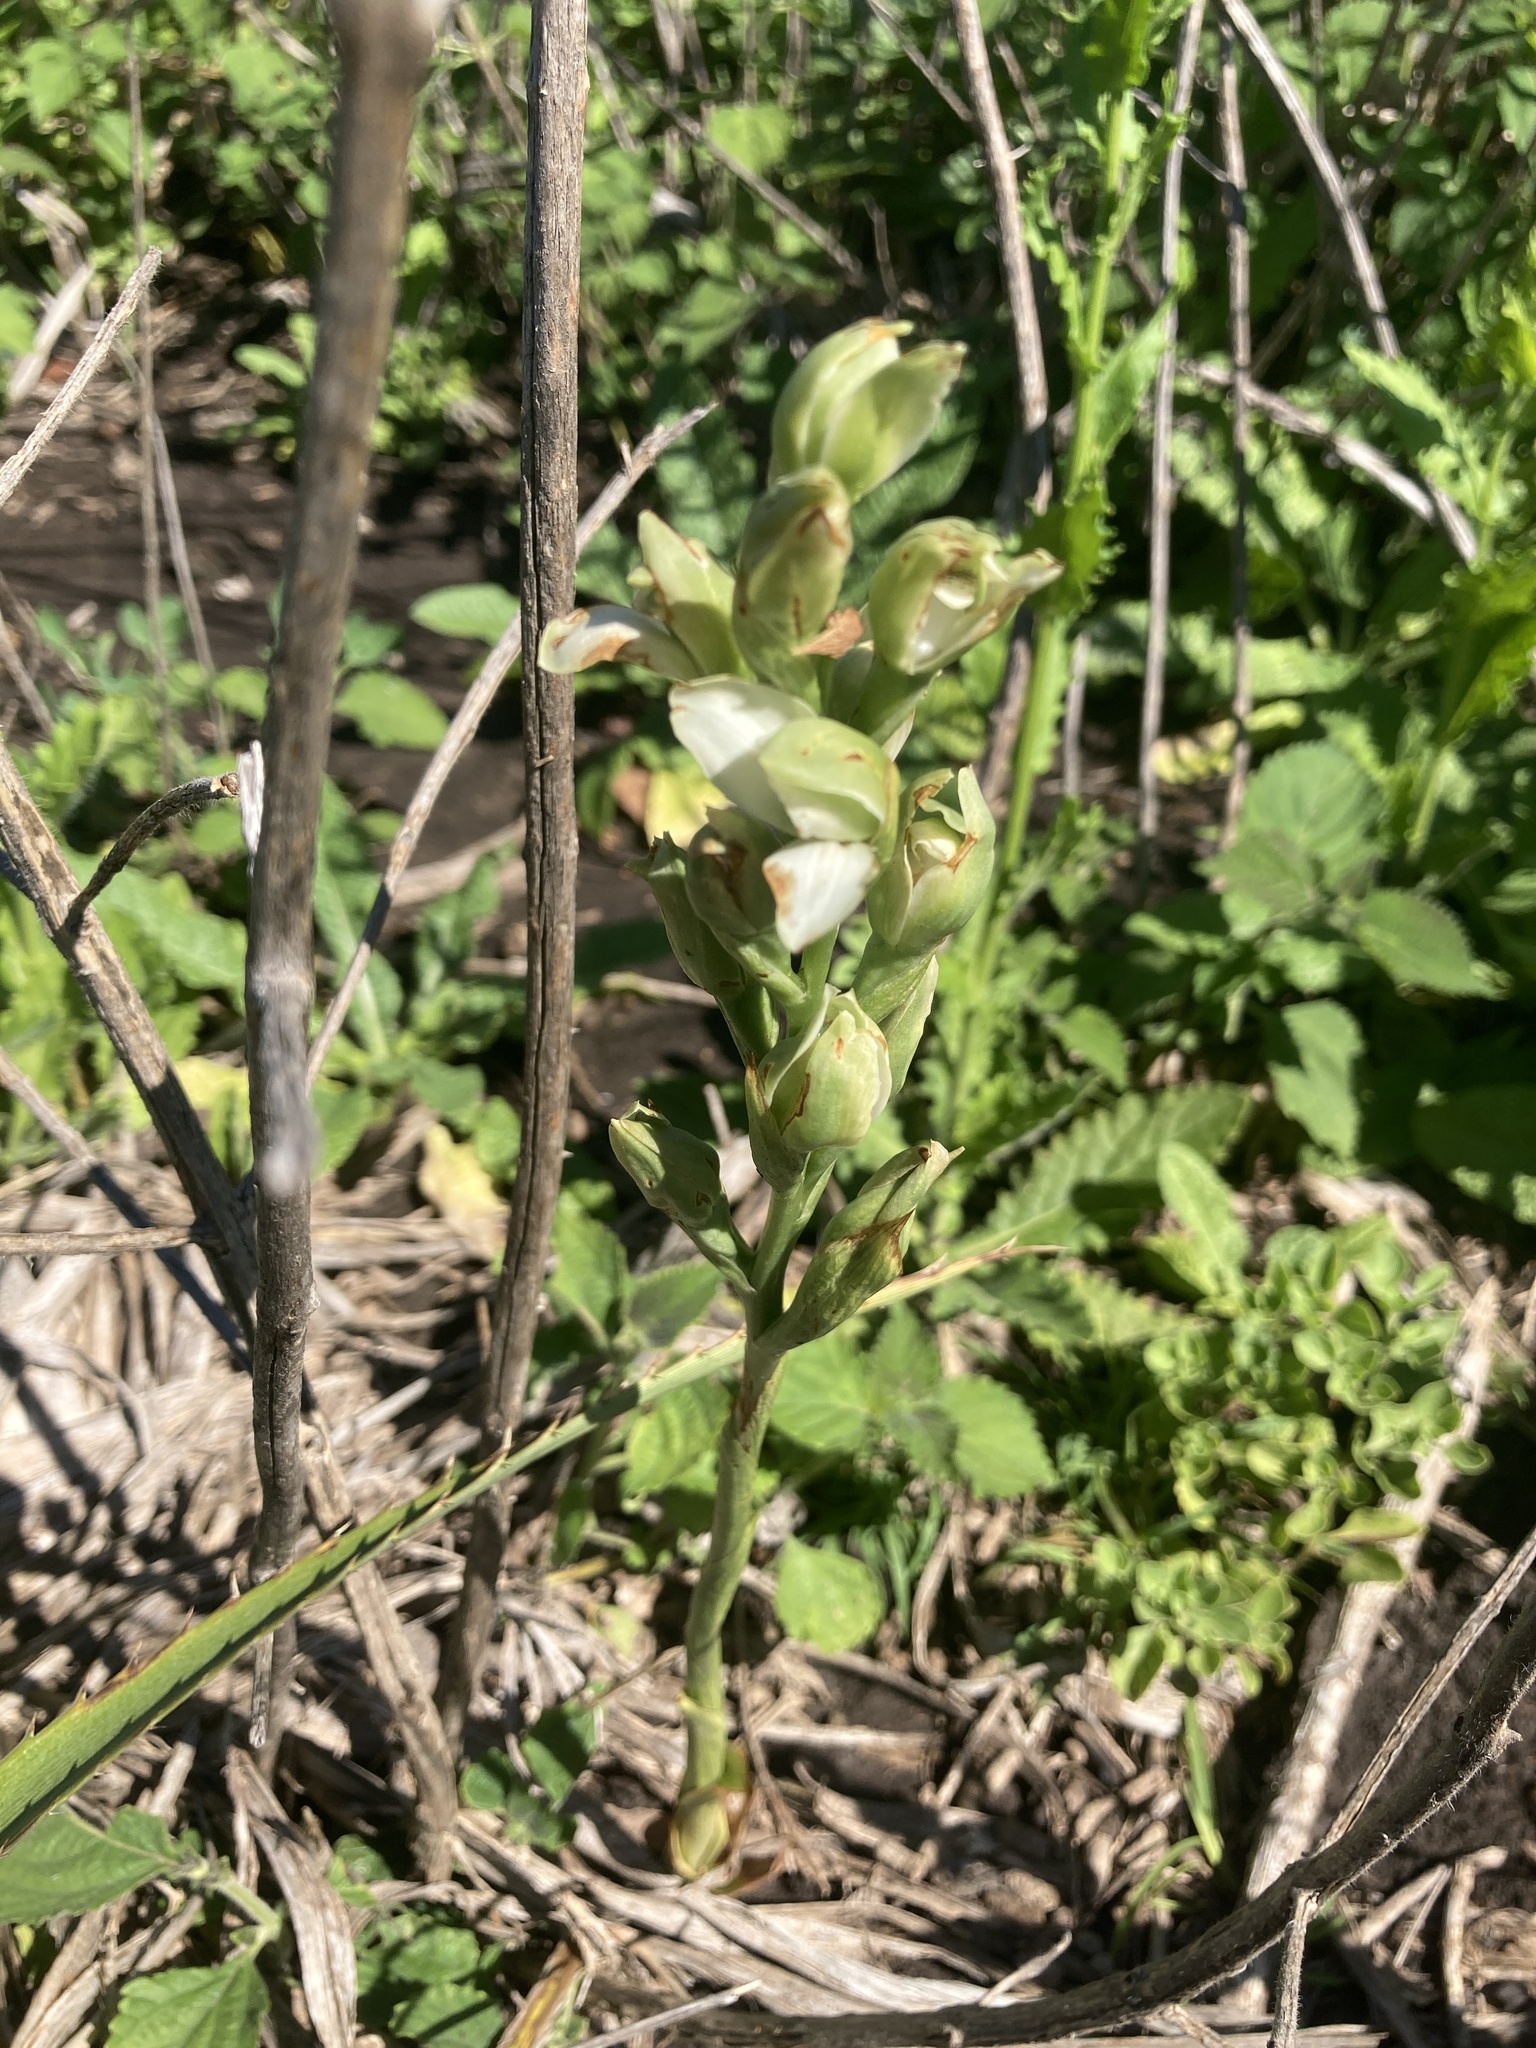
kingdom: Plantae
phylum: Tracheophyta
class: Liliopsida
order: Asparagales
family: Orchidaceae
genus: Chloraea
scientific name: Chloraea membranacea
